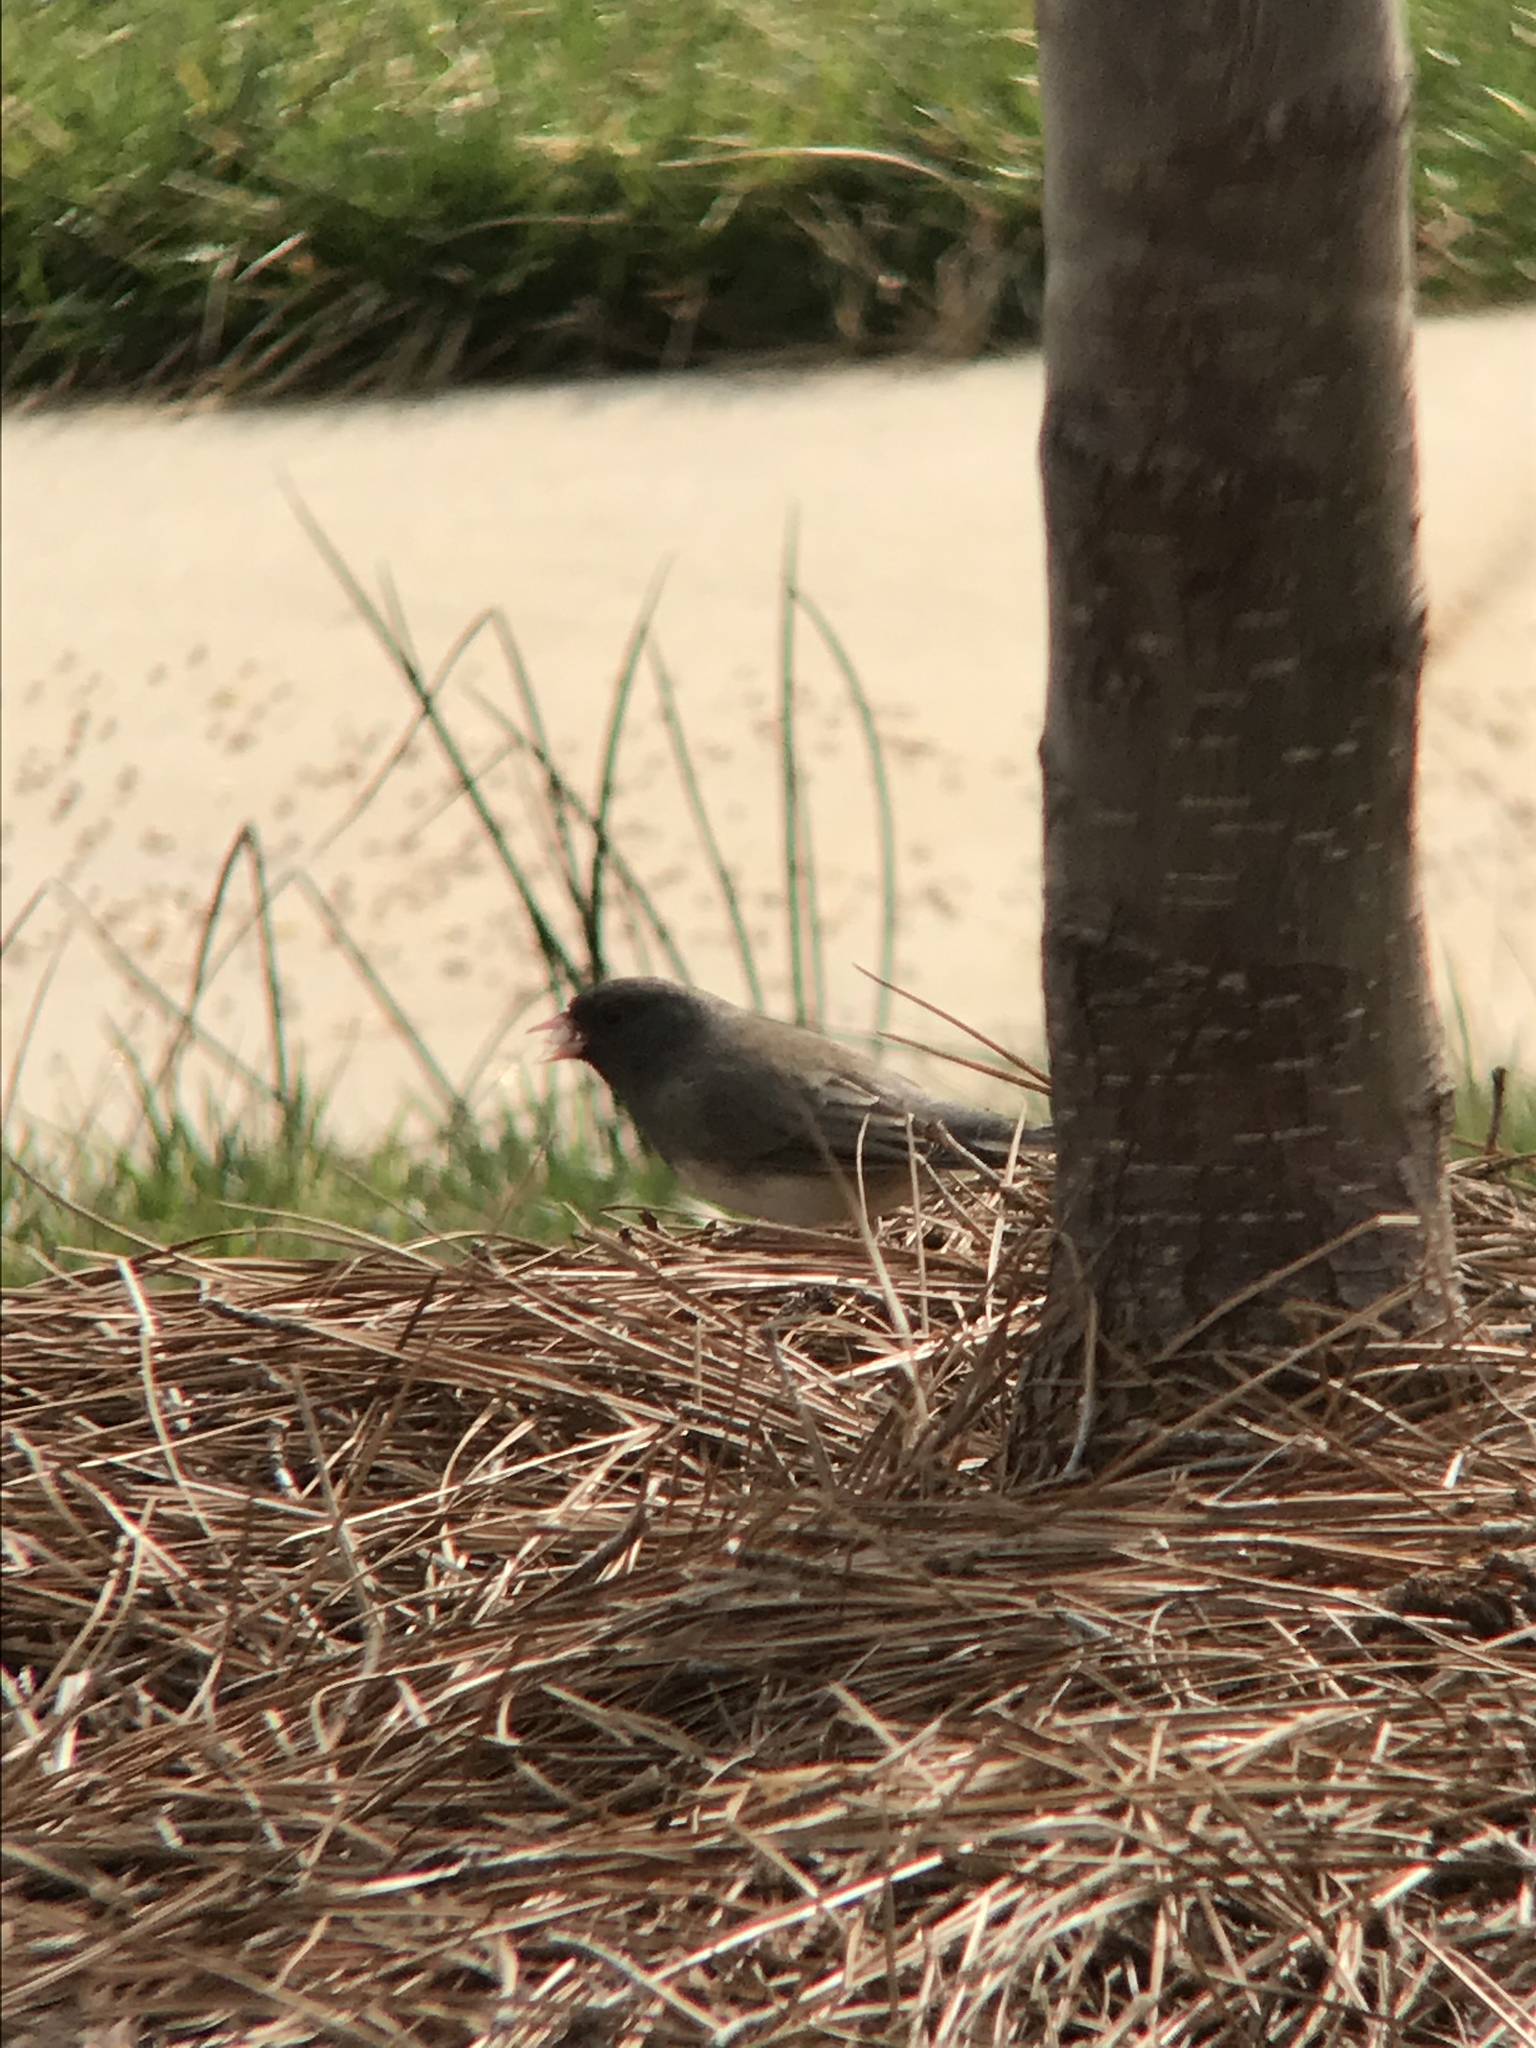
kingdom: Animalia
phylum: Chordata
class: Aves
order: Passeriformes
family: Passerellidae
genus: Junco
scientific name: Junco hyemalis
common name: Dark-eyed junco
